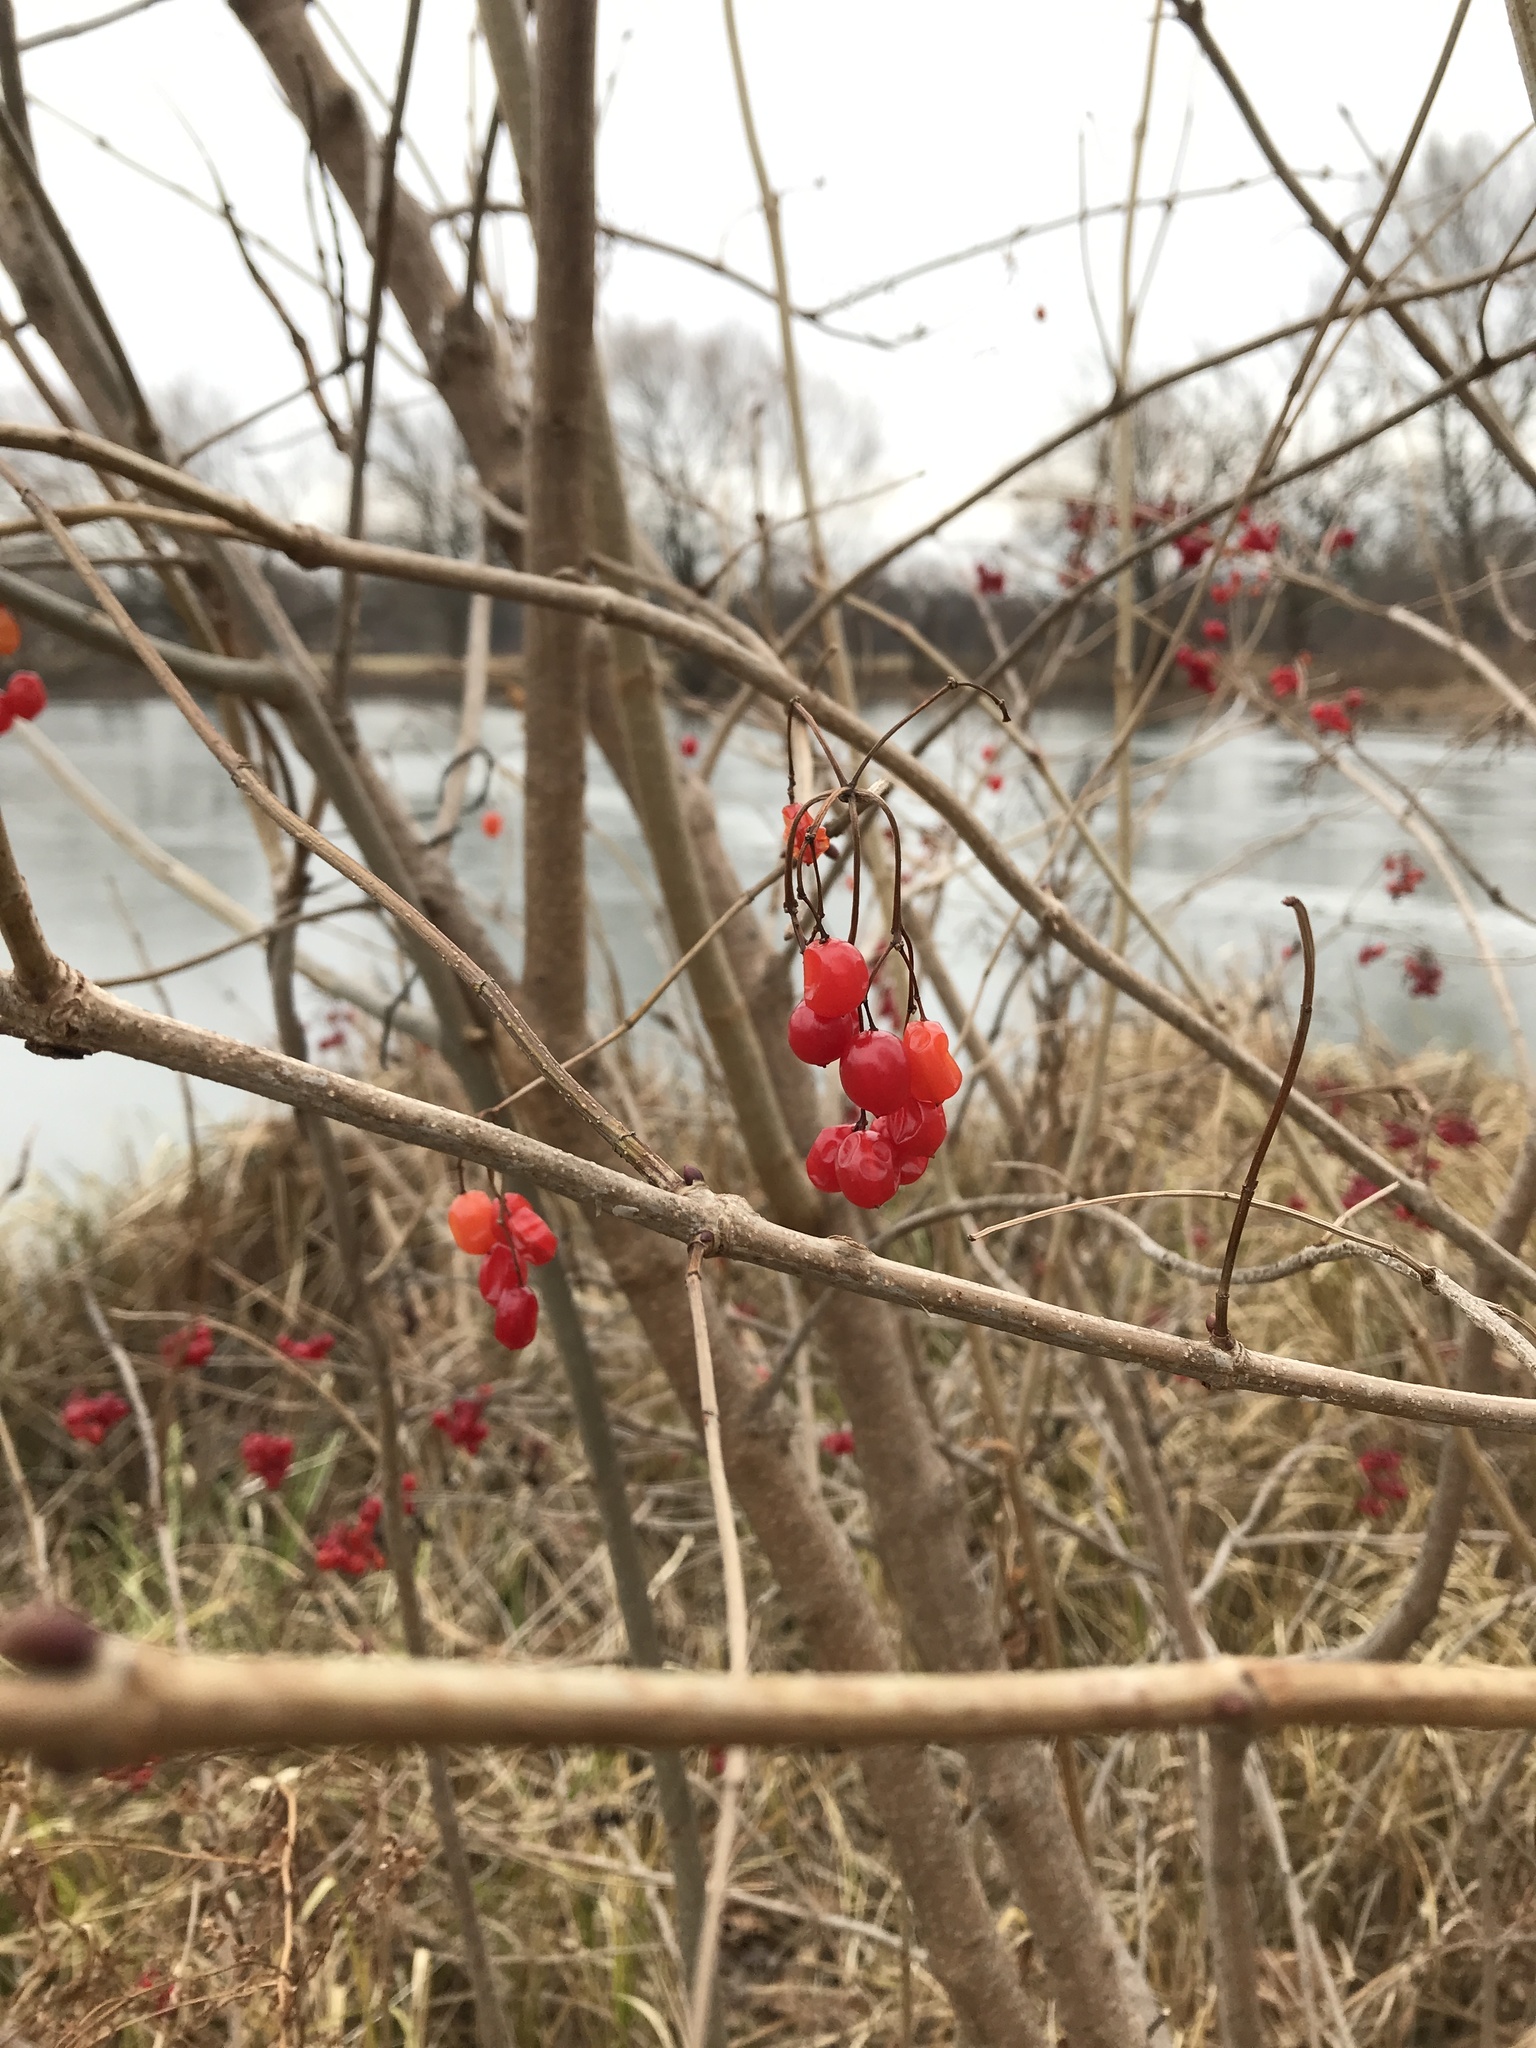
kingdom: Plantae
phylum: Tracheophyta
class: Magnoliopsida
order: Dipsacales
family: Viburnaceae
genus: Viburnum
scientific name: Viburnum opulus
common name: Guelder-rose
